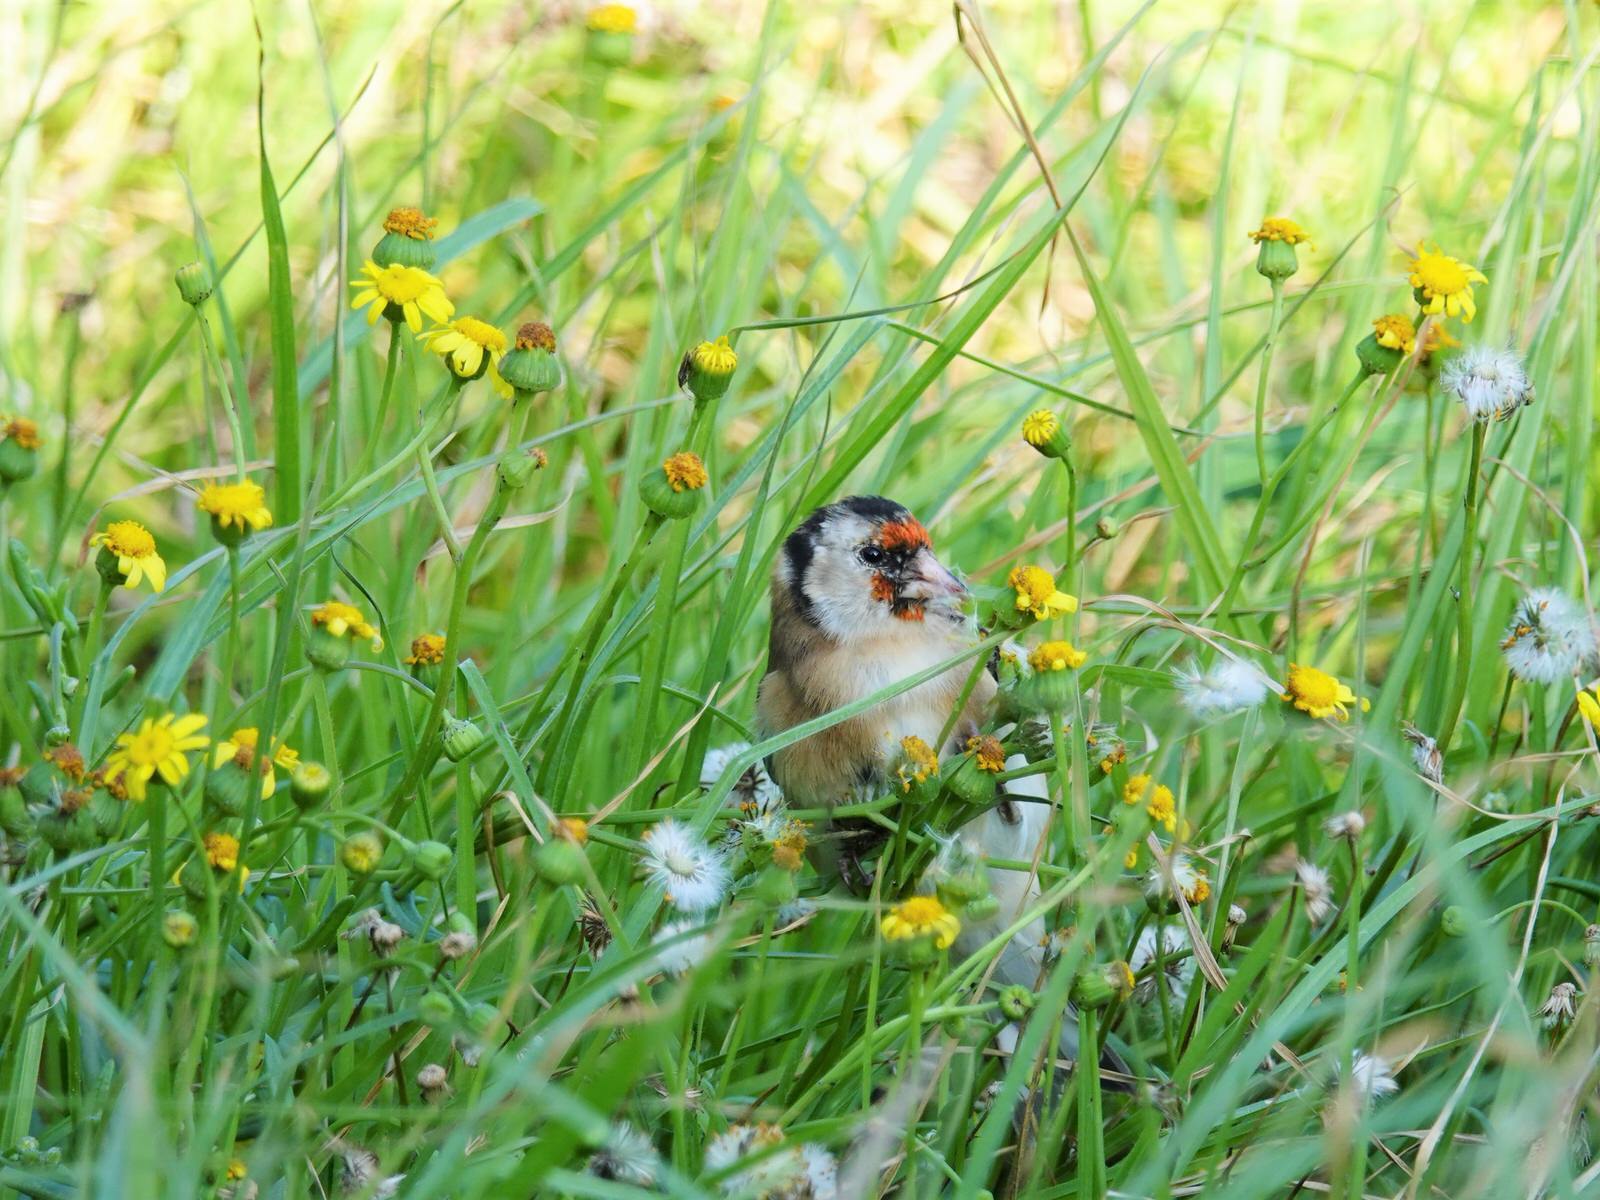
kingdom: Animalia
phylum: Chordata
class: Aves
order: Passeriformes
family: Fringillidae
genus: Carduelis
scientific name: Carduelis carduelis
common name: European goldfinch
